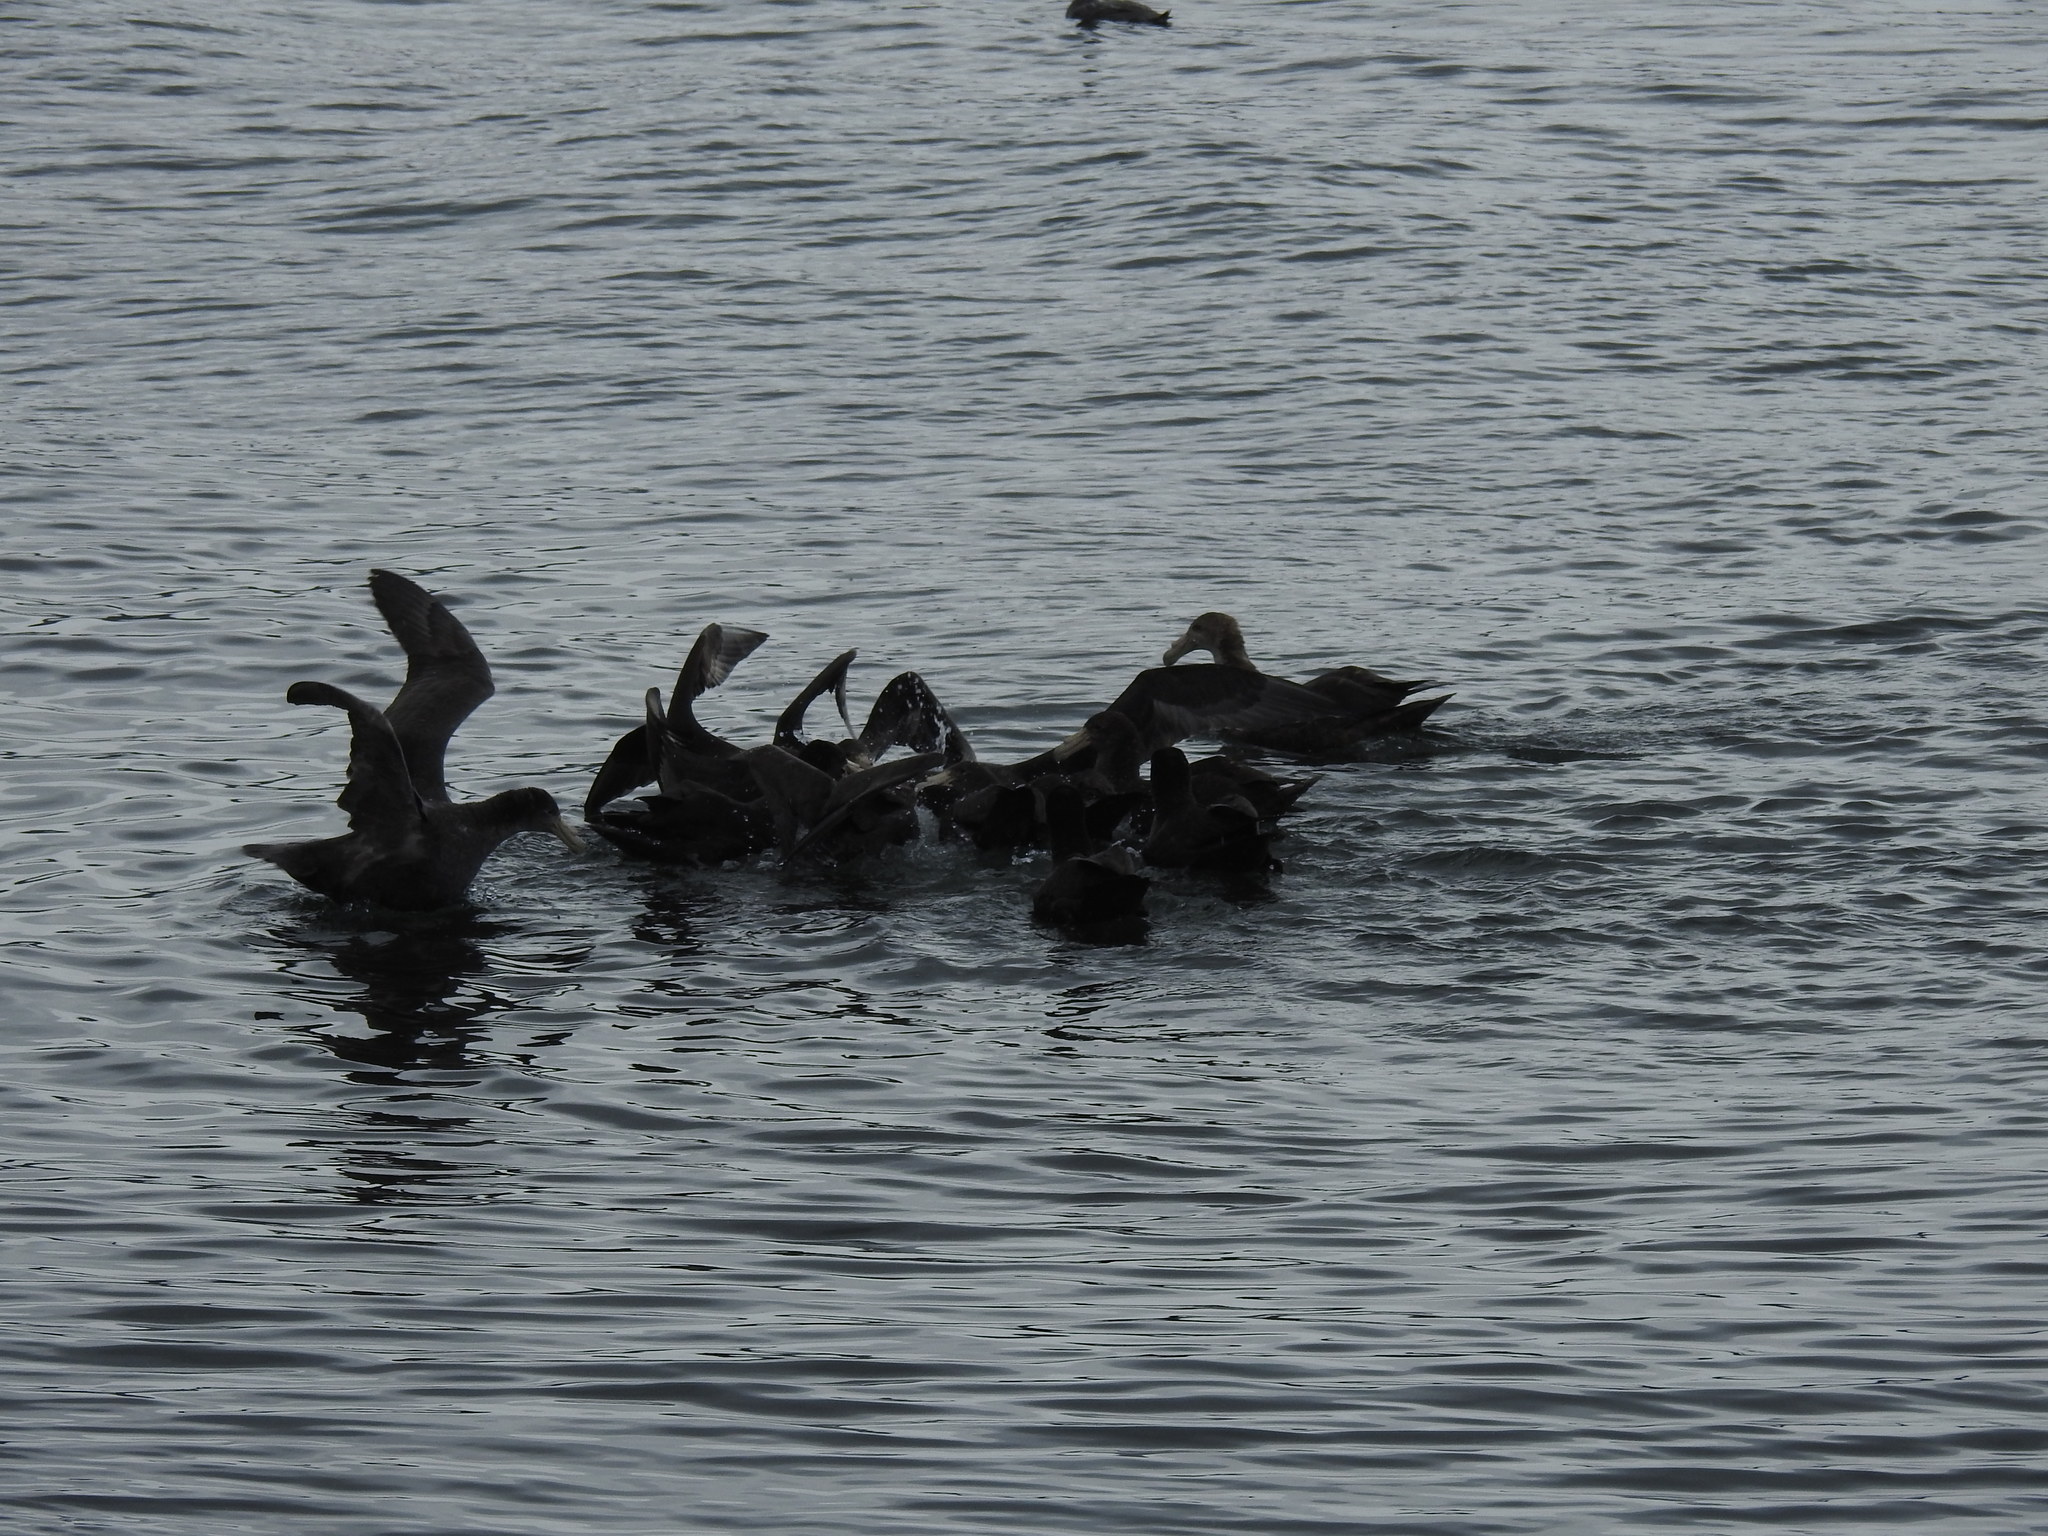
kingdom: Animalia
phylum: Chordata
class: Aves
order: Procellariiformes
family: Procellariidae
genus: Macronectes
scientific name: Macronectes giganteus
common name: Southern giant petrel
